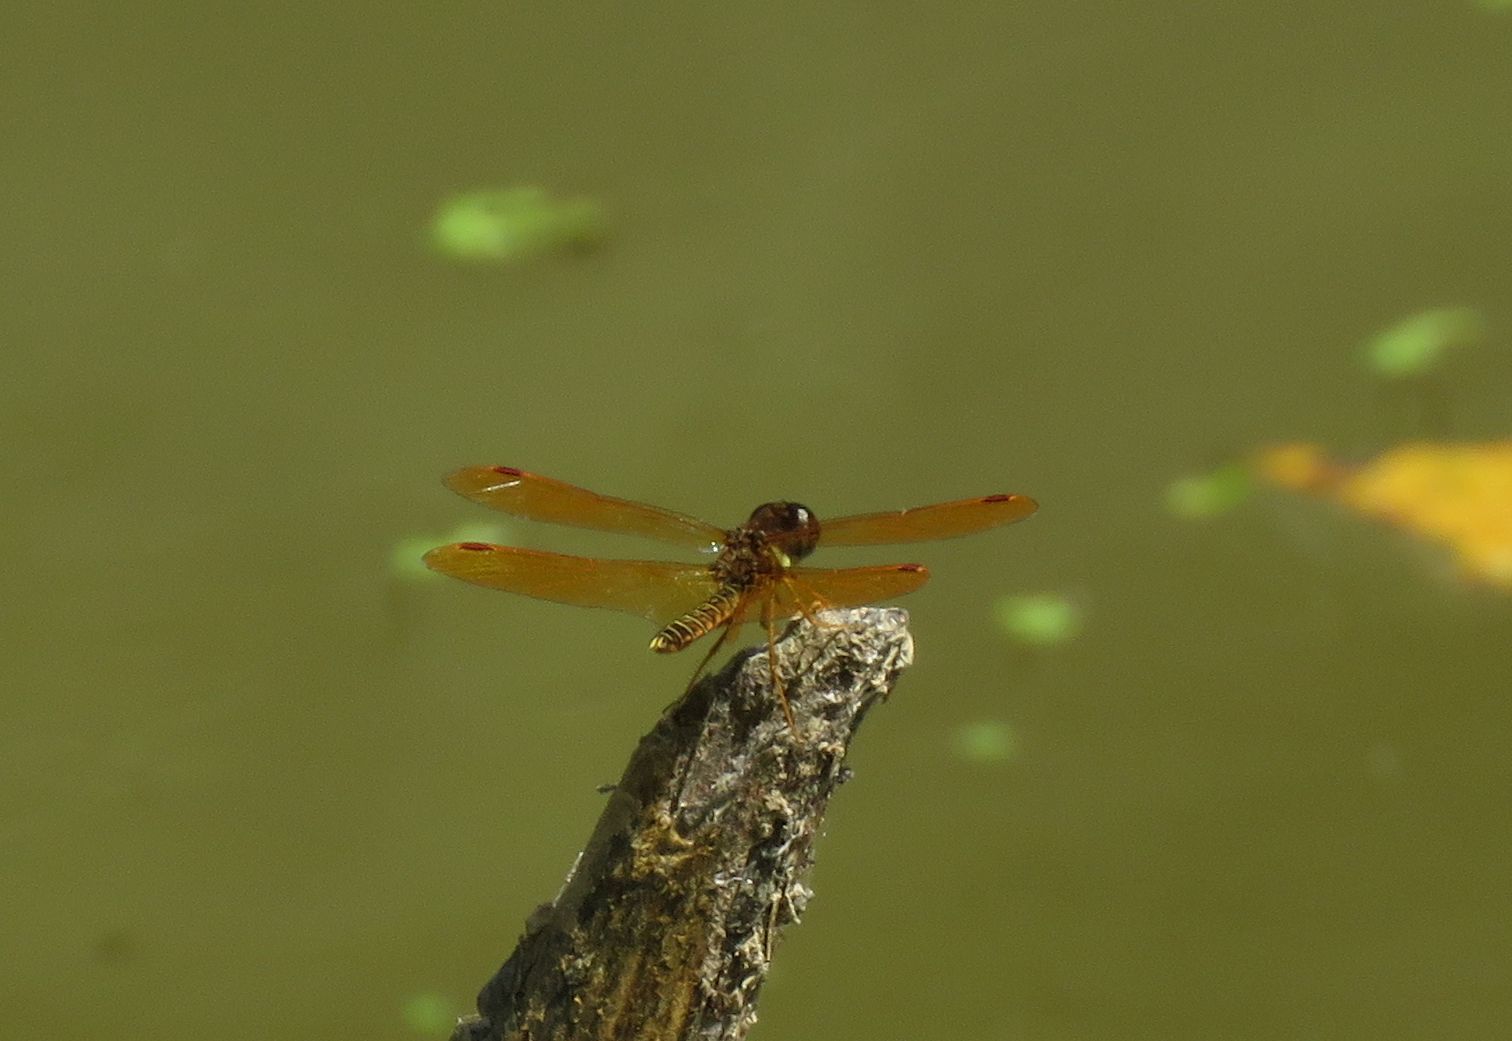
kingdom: Animalia
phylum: Arthropoda
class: Insecta
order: Odonata
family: Libellulidae
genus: Perithemis
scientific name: Perithemis tenera
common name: Eastern amberwing
